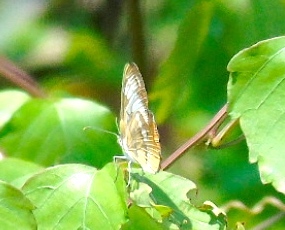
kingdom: Animalia
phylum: Arthropoda
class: Insecta
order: Lepidoptera
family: Nymphalidae
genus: Mestra
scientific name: Mestra amymone
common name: Common mestra
